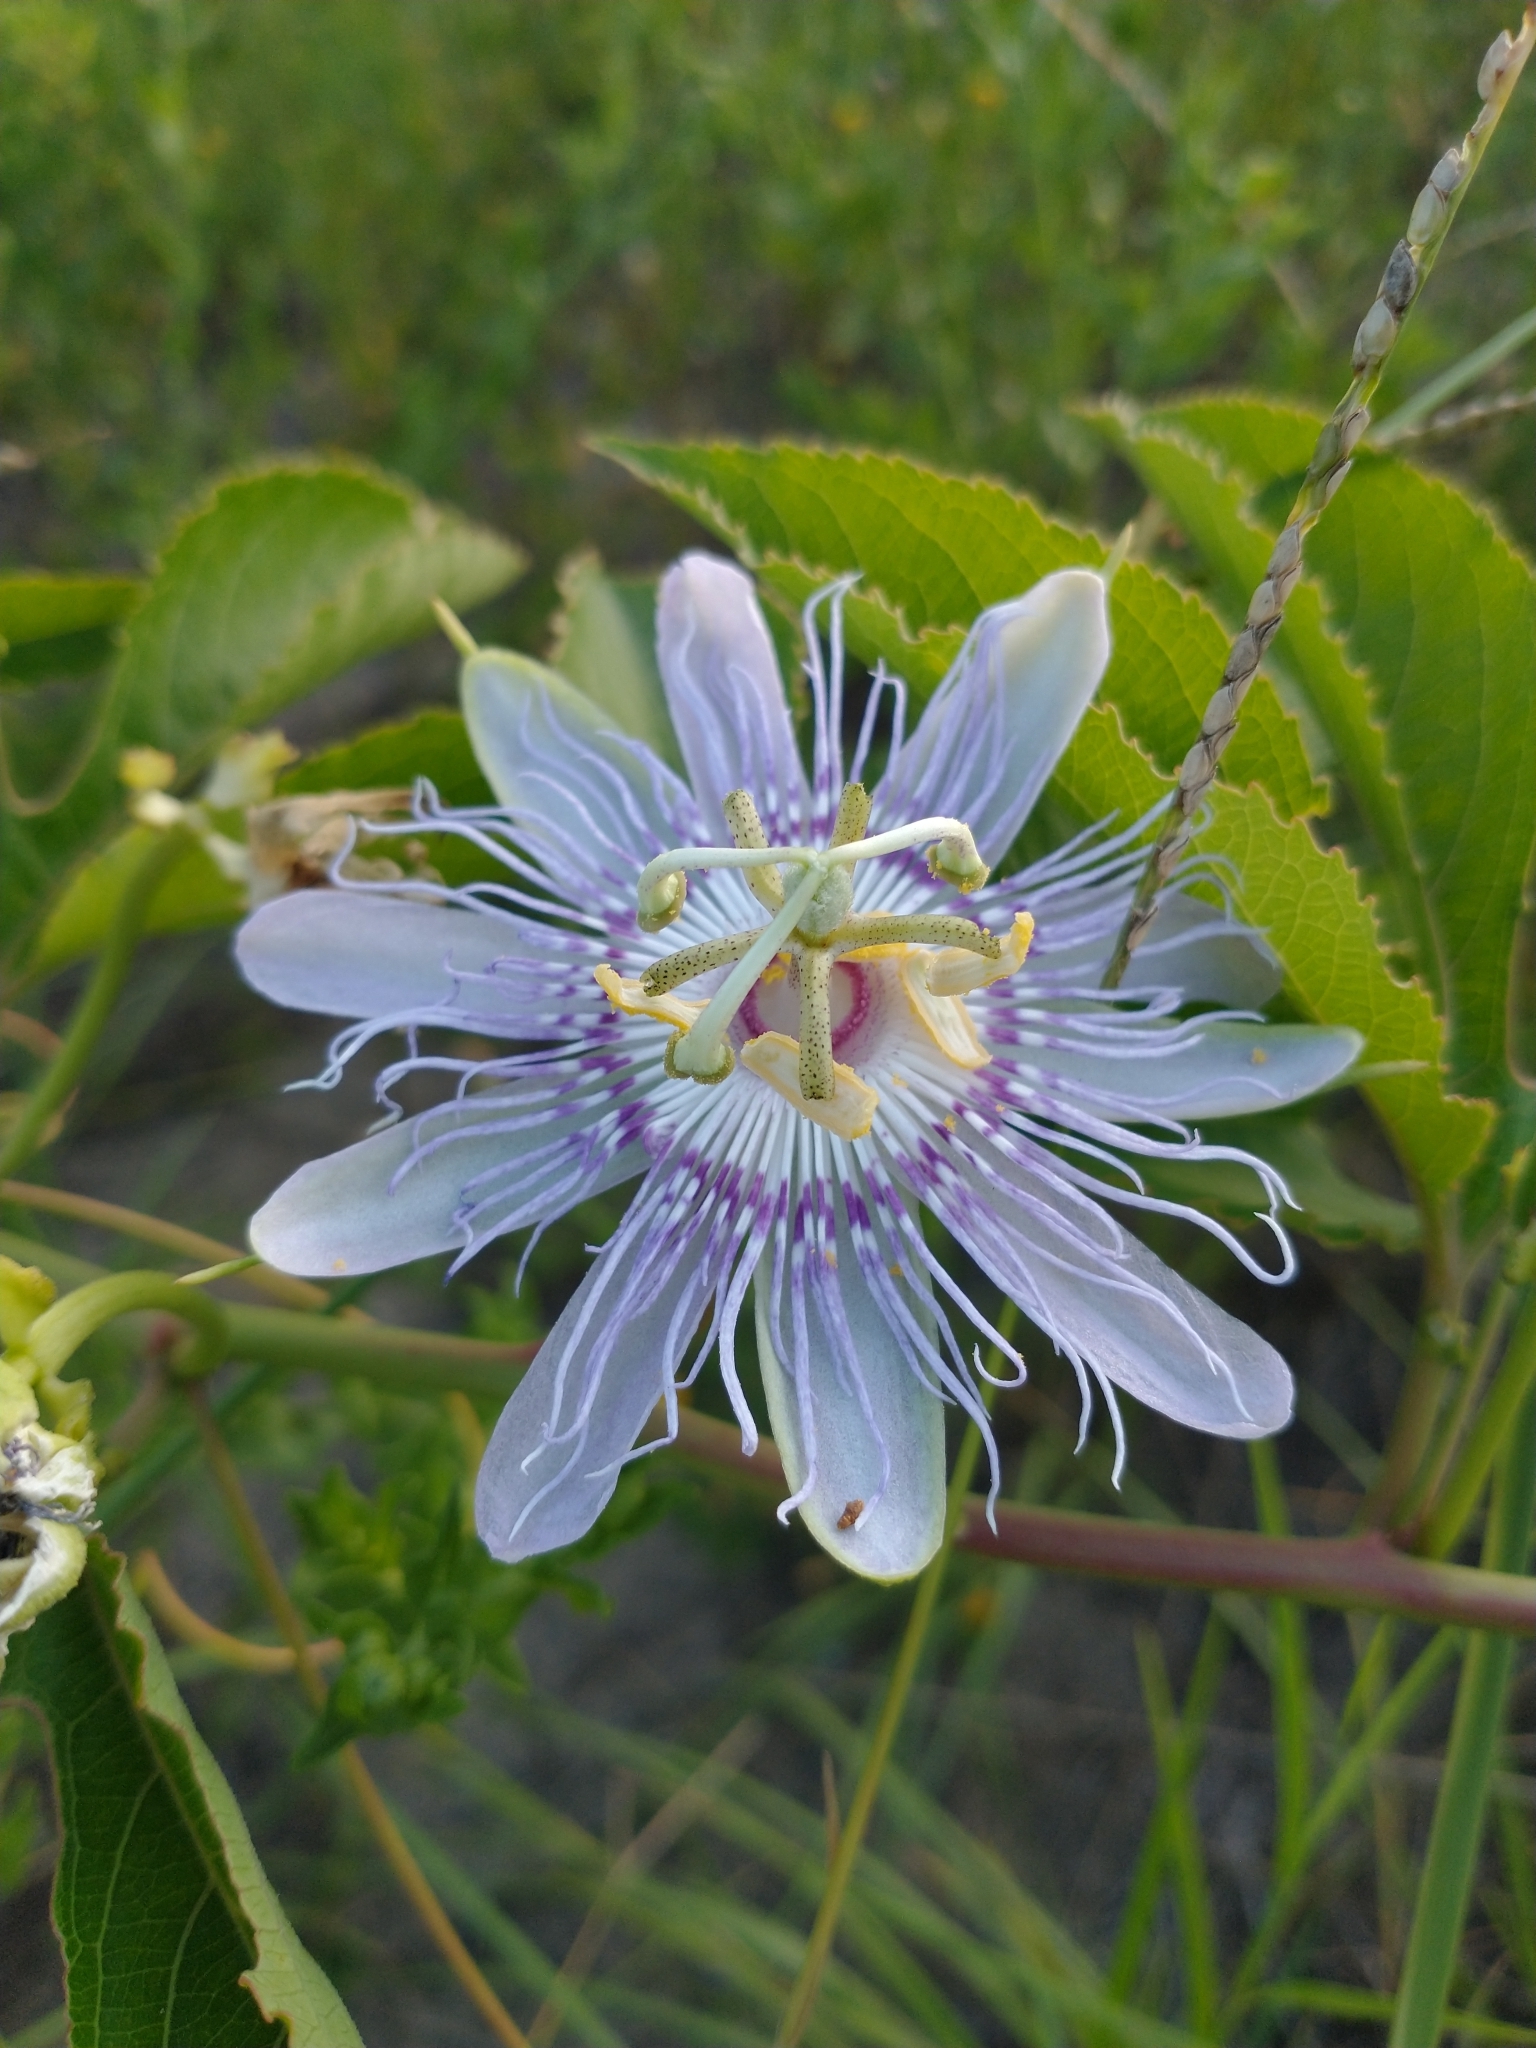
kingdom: Plantae
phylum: Tracheophyta
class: Magnoliopsida
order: Malpighiales
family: Passifloraceae
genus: Passiflora
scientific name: Passiflora incarnata
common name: Apricot-vine
